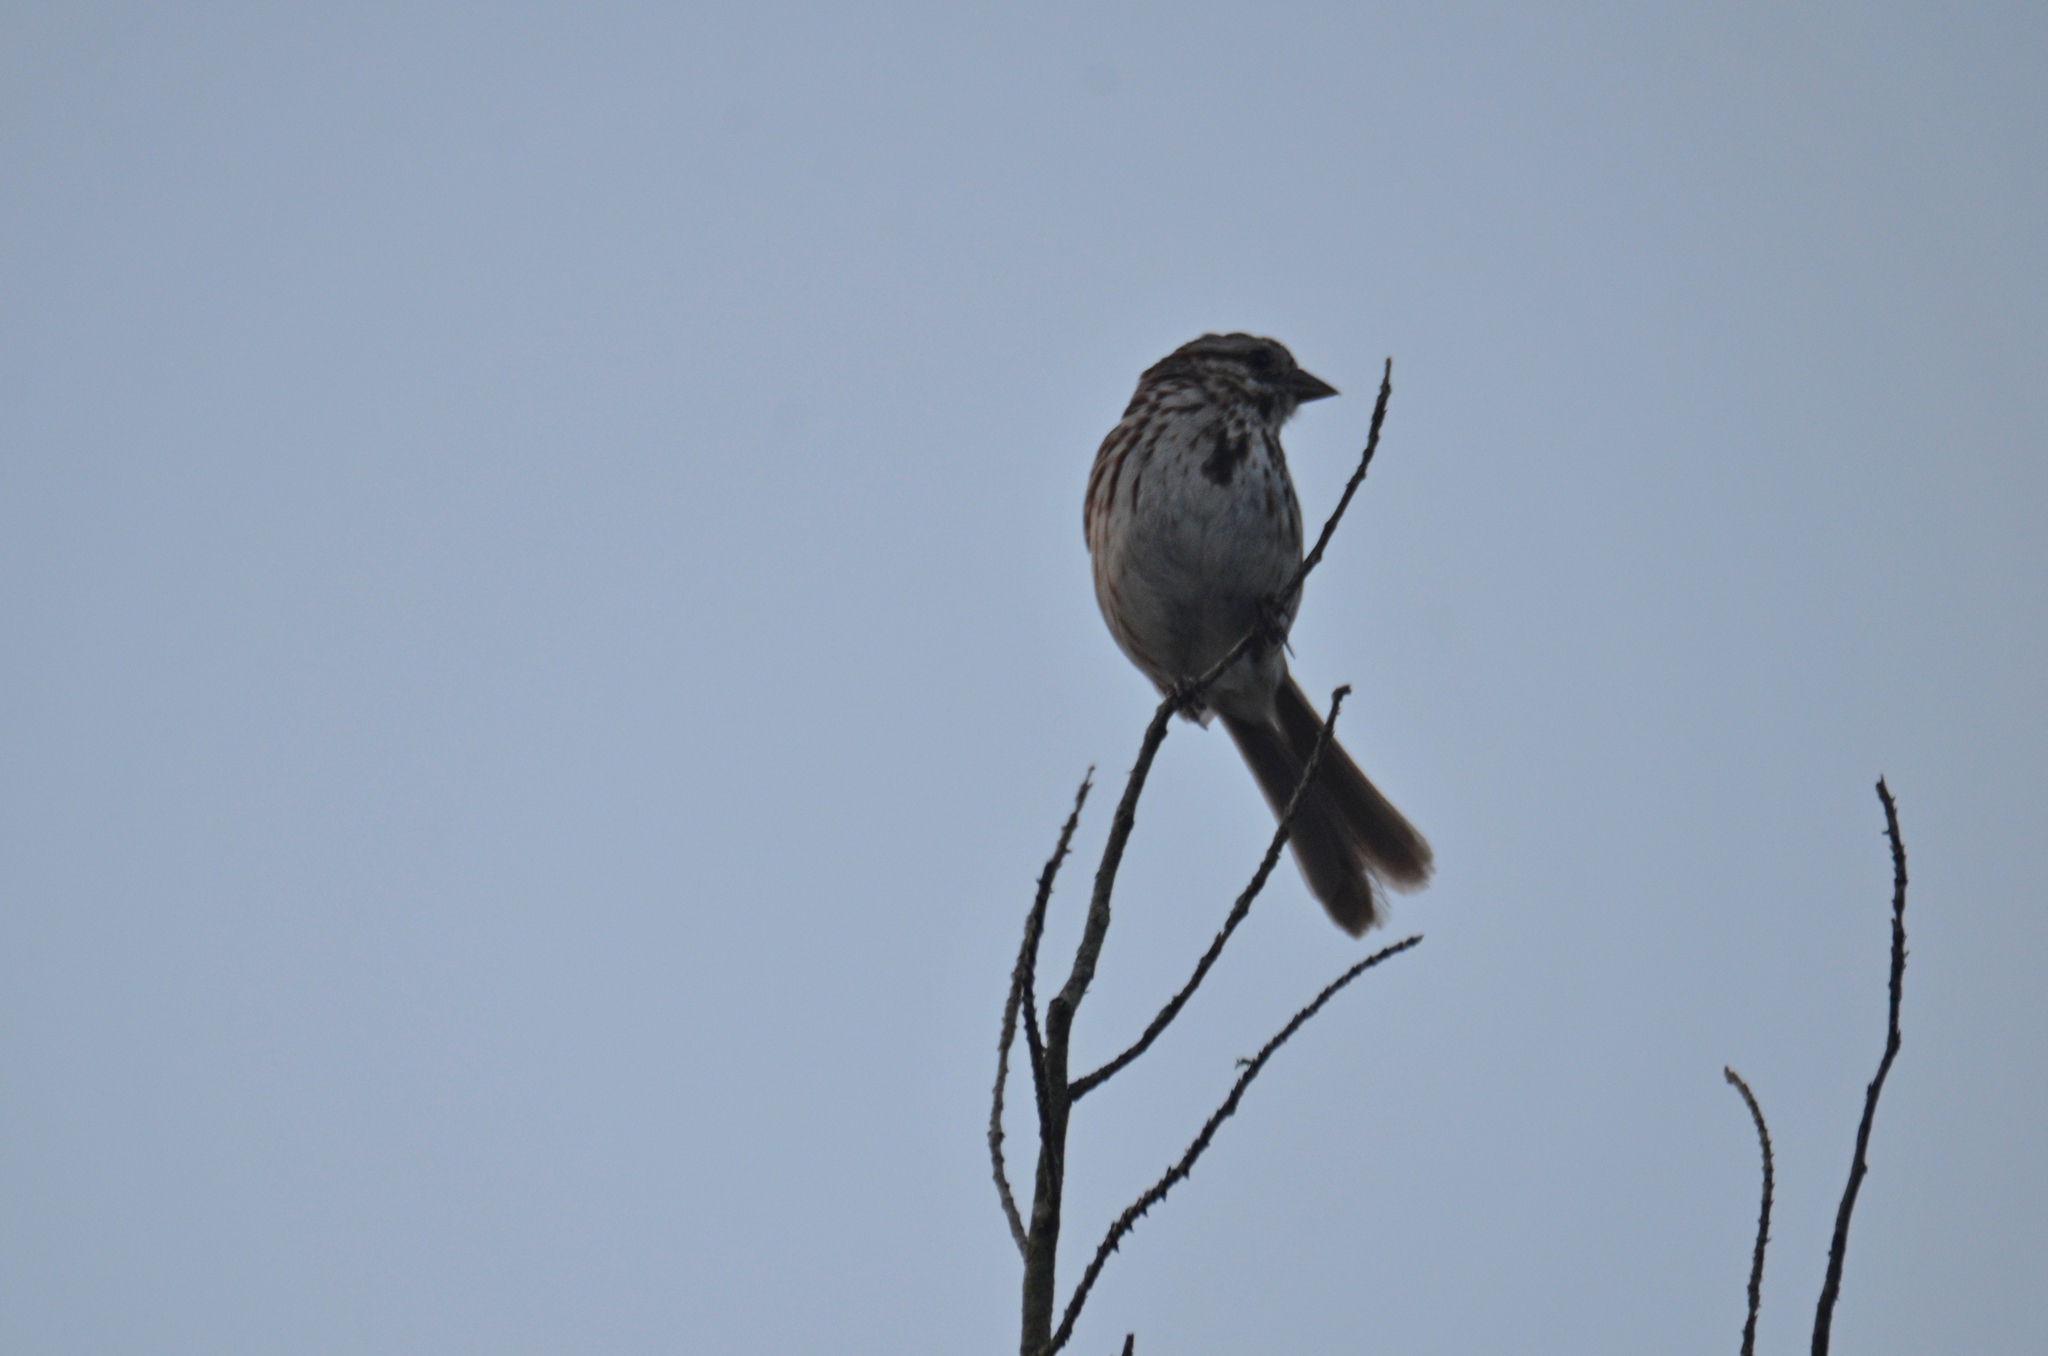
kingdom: Animalia
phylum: Chordata
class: Aves
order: Passeriformes
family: Passerellidae
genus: Melospiza
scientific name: Melospiza melodia
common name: Song sparrow
